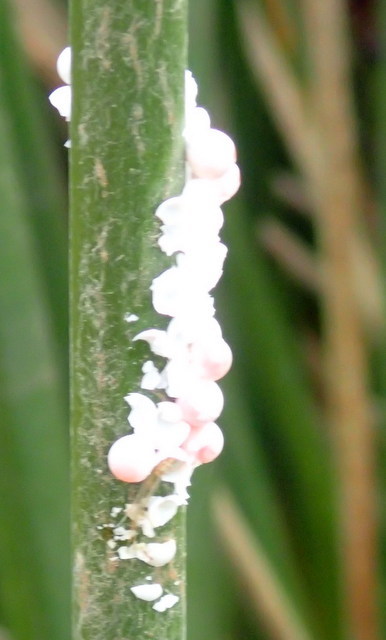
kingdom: Animalia
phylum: Mollusca
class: Gastropoda
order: Architaenioglossa
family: Ampullariidae
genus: Pomacea
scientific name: Pomacea paludosa
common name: Florida applesnail
